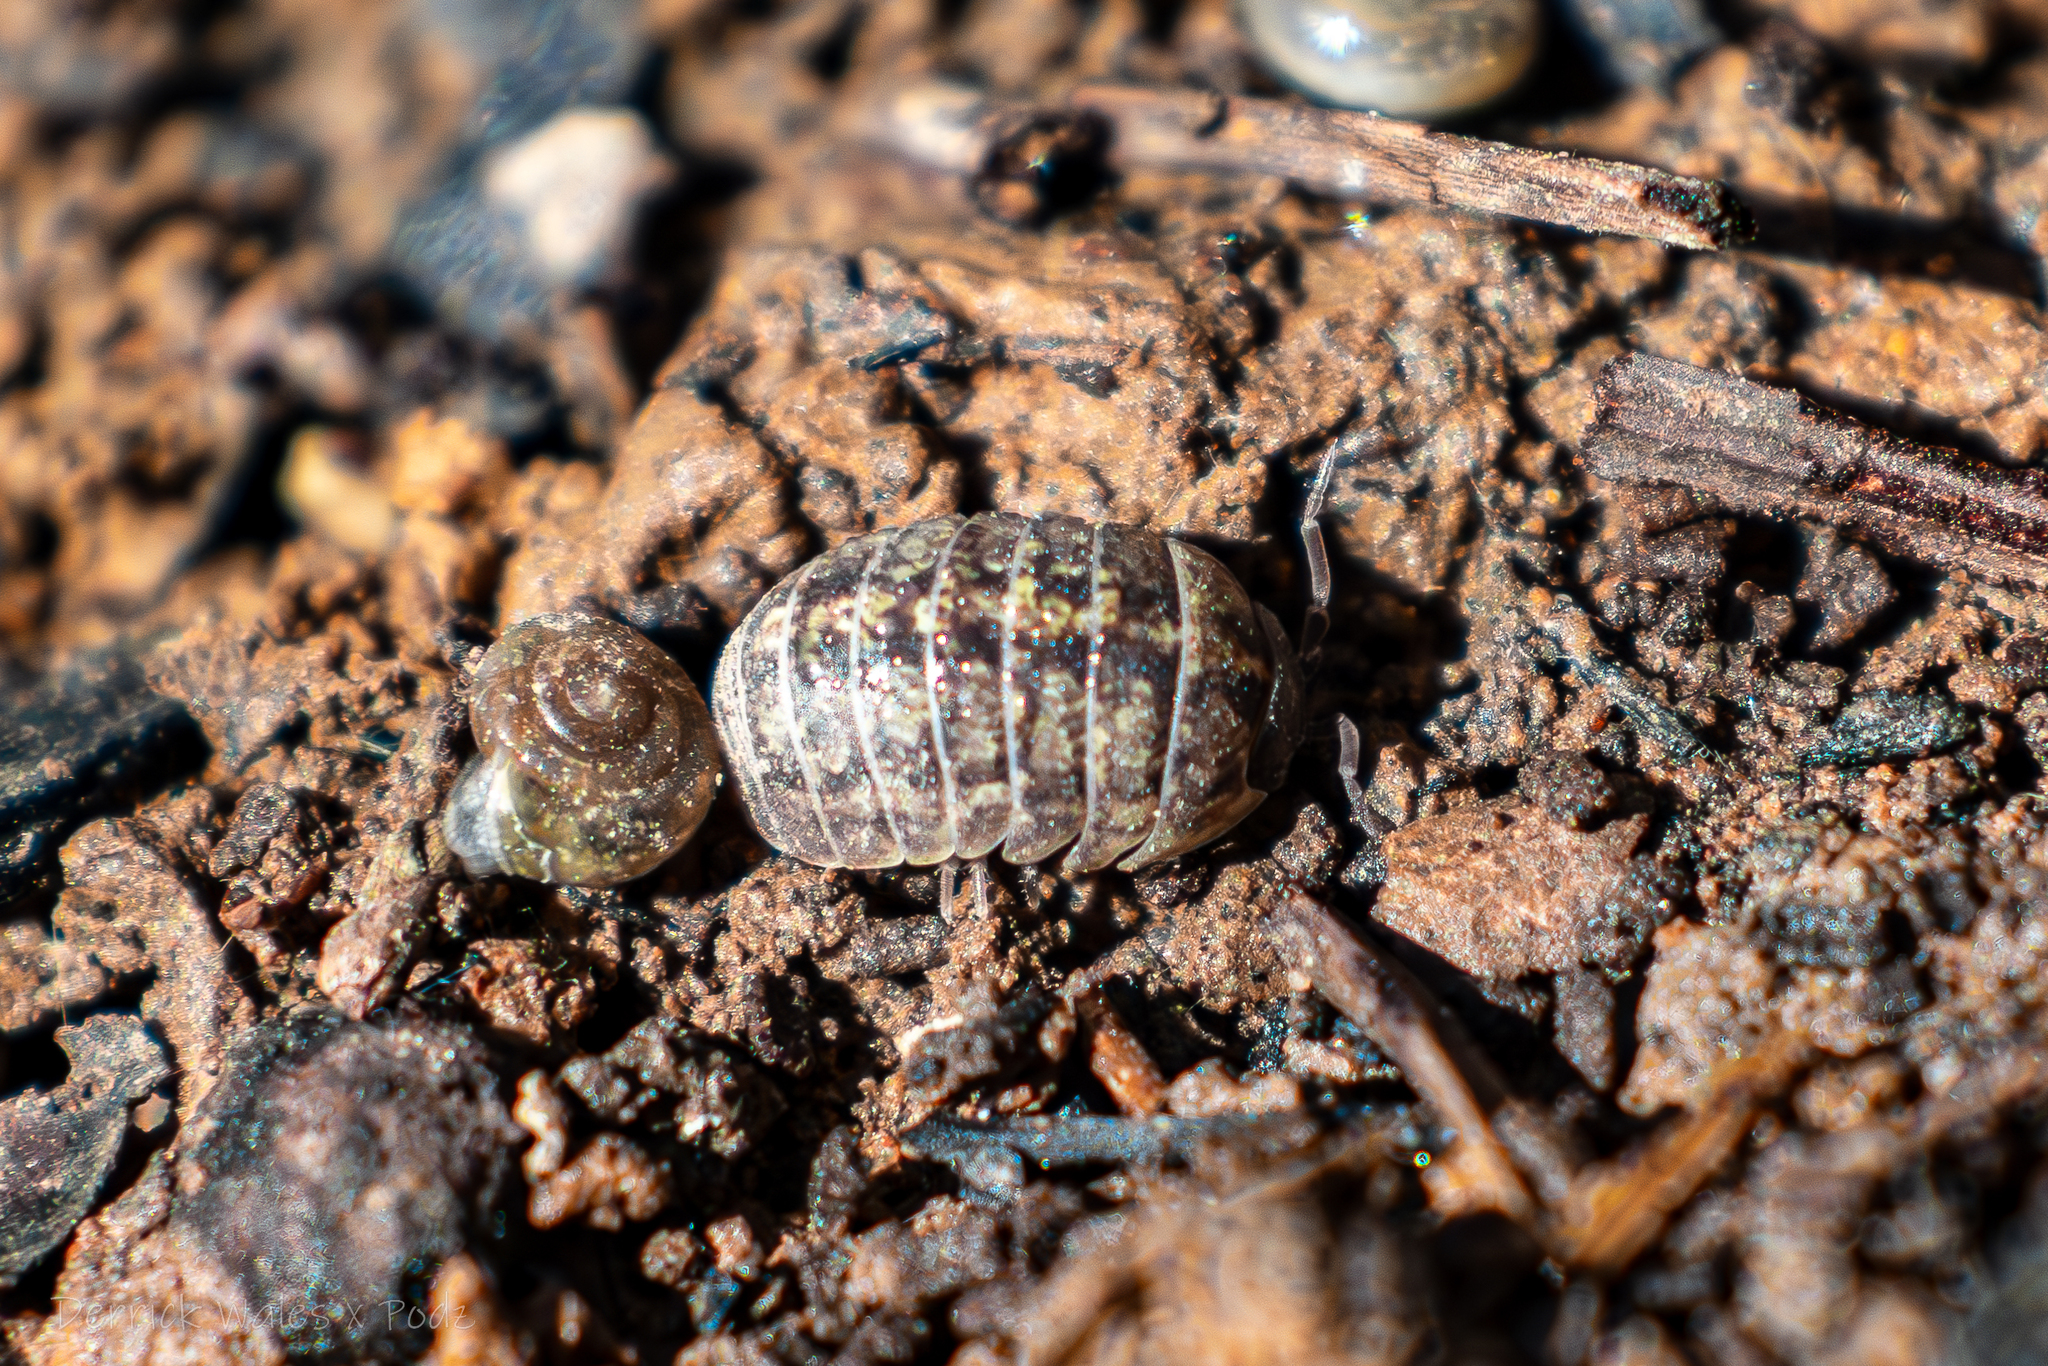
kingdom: Animalia
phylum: Arthropoda
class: Malacostraca
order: Isopoda
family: Armadillidiidae
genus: Armadillidium
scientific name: Armadillidium vulgare
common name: Common pill woodlouse
